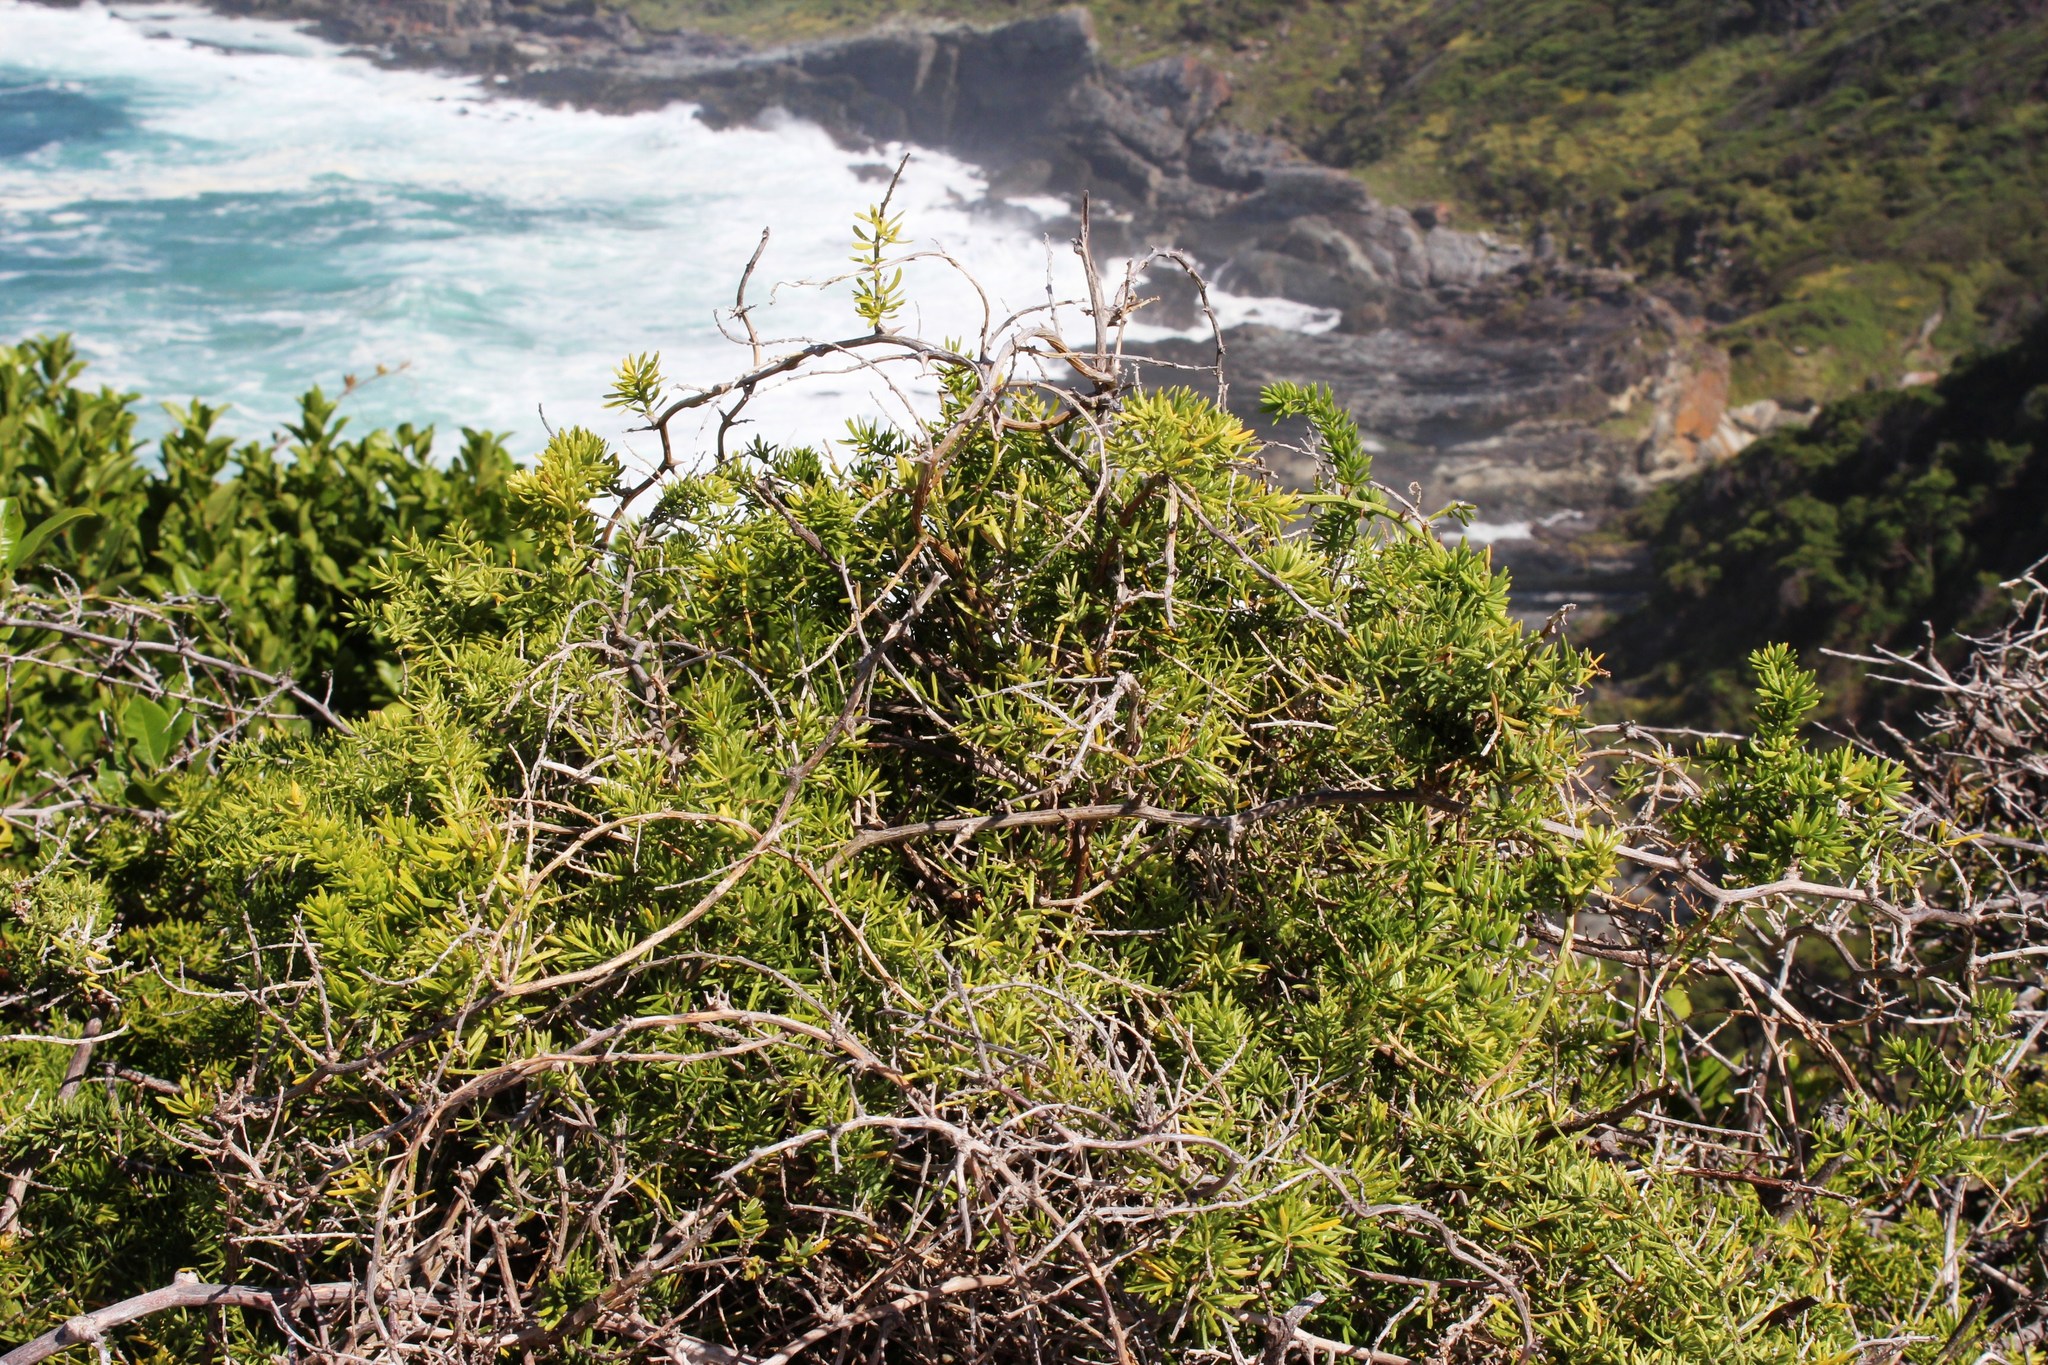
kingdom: Plantae
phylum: Tracheophyta
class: Liliopsida
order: Asparagales
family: Asparagaceae
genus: Asparagus
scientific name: Asparagus aethiopicus
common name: Sprenger's asparagus fern
